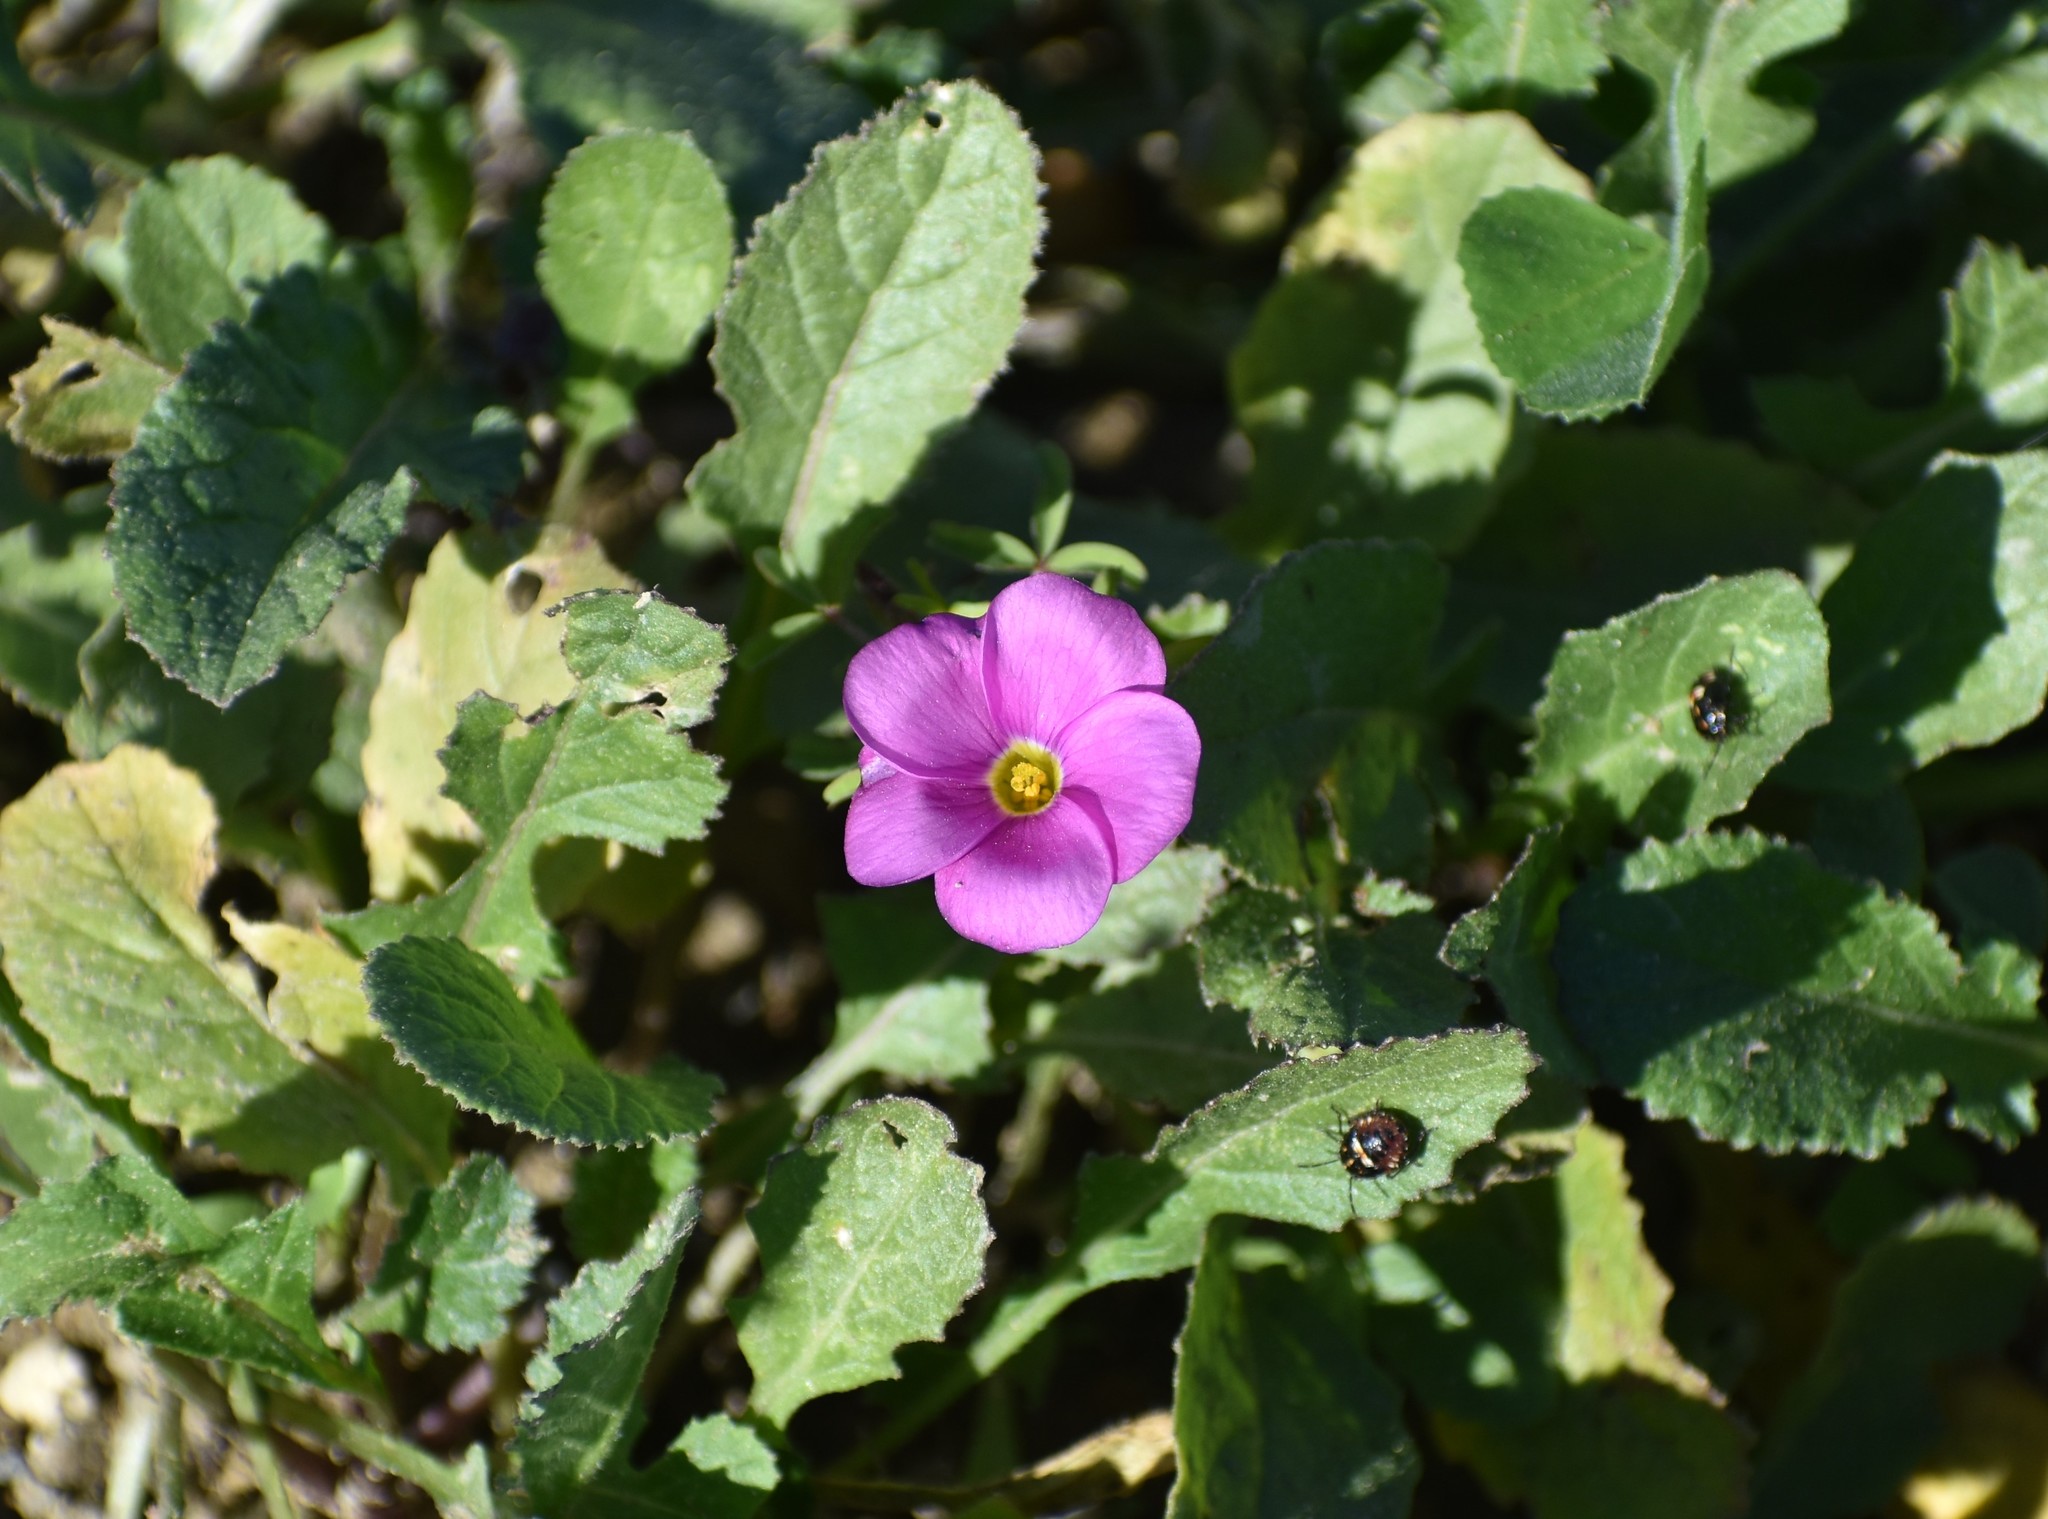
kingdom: Plantae
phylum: Tracheophyta
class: Magnoliopsida
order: Oxalidales
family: Oxalidaceae
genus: Oxalis
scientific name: Oxalis ciliaris
